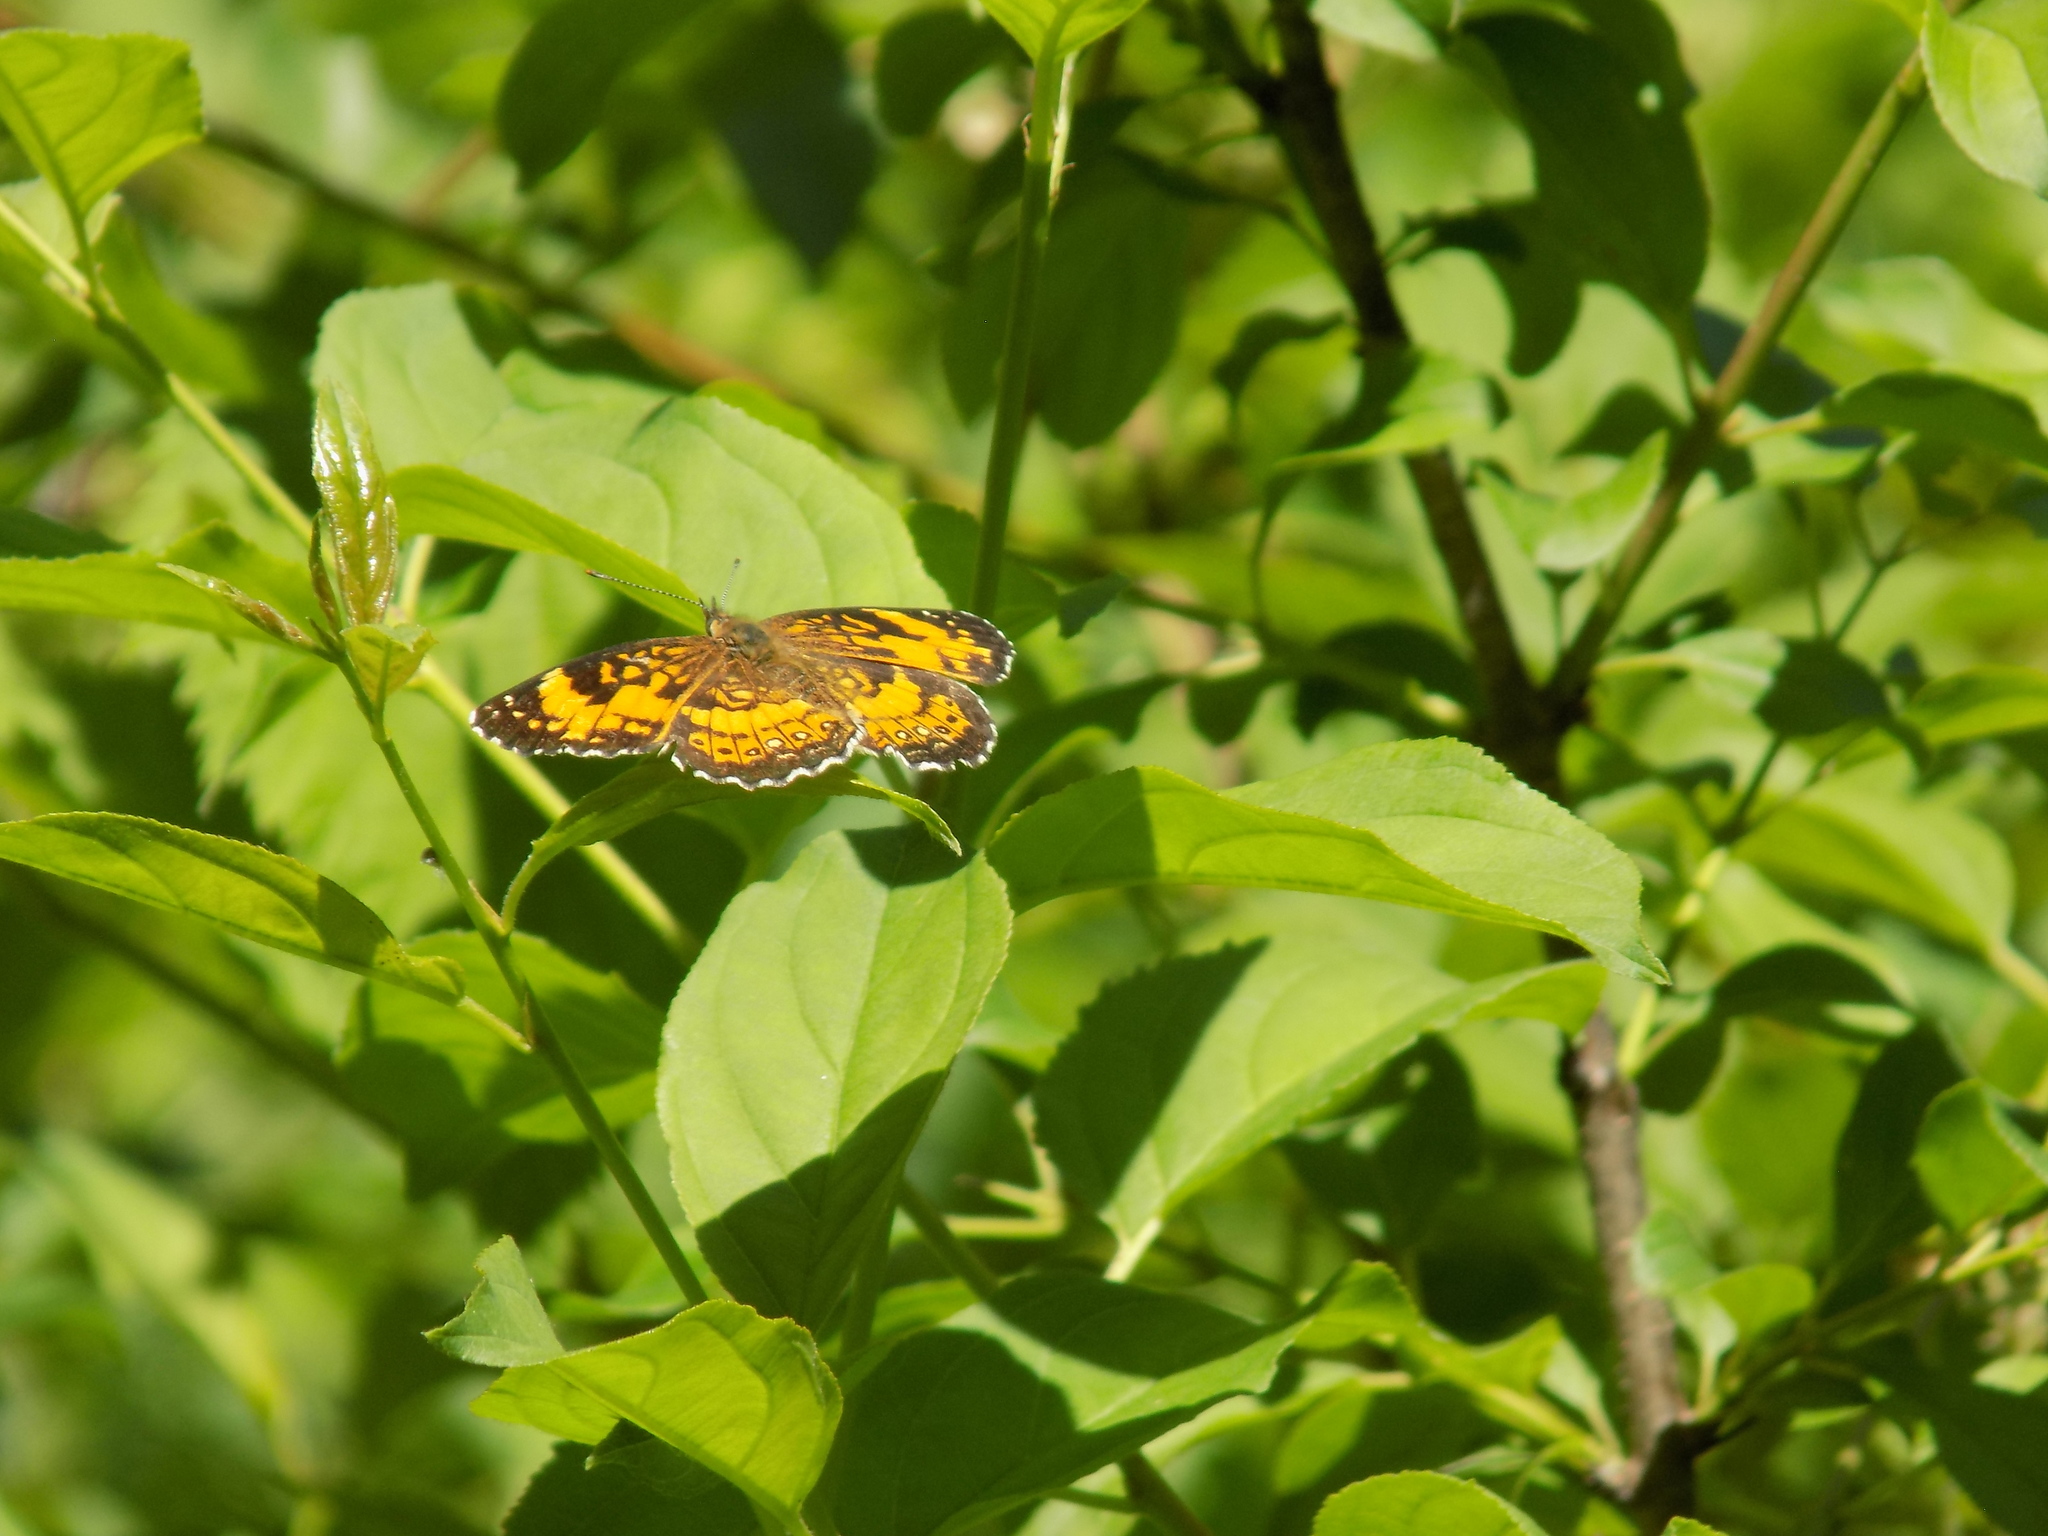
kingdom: Animalia
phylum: Arthropoda
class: Insecta
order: Lepidoptera
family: Nymphalidae
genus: Chlosyne
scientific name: Chlosyne nycteis
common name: Silvery checkerspot
